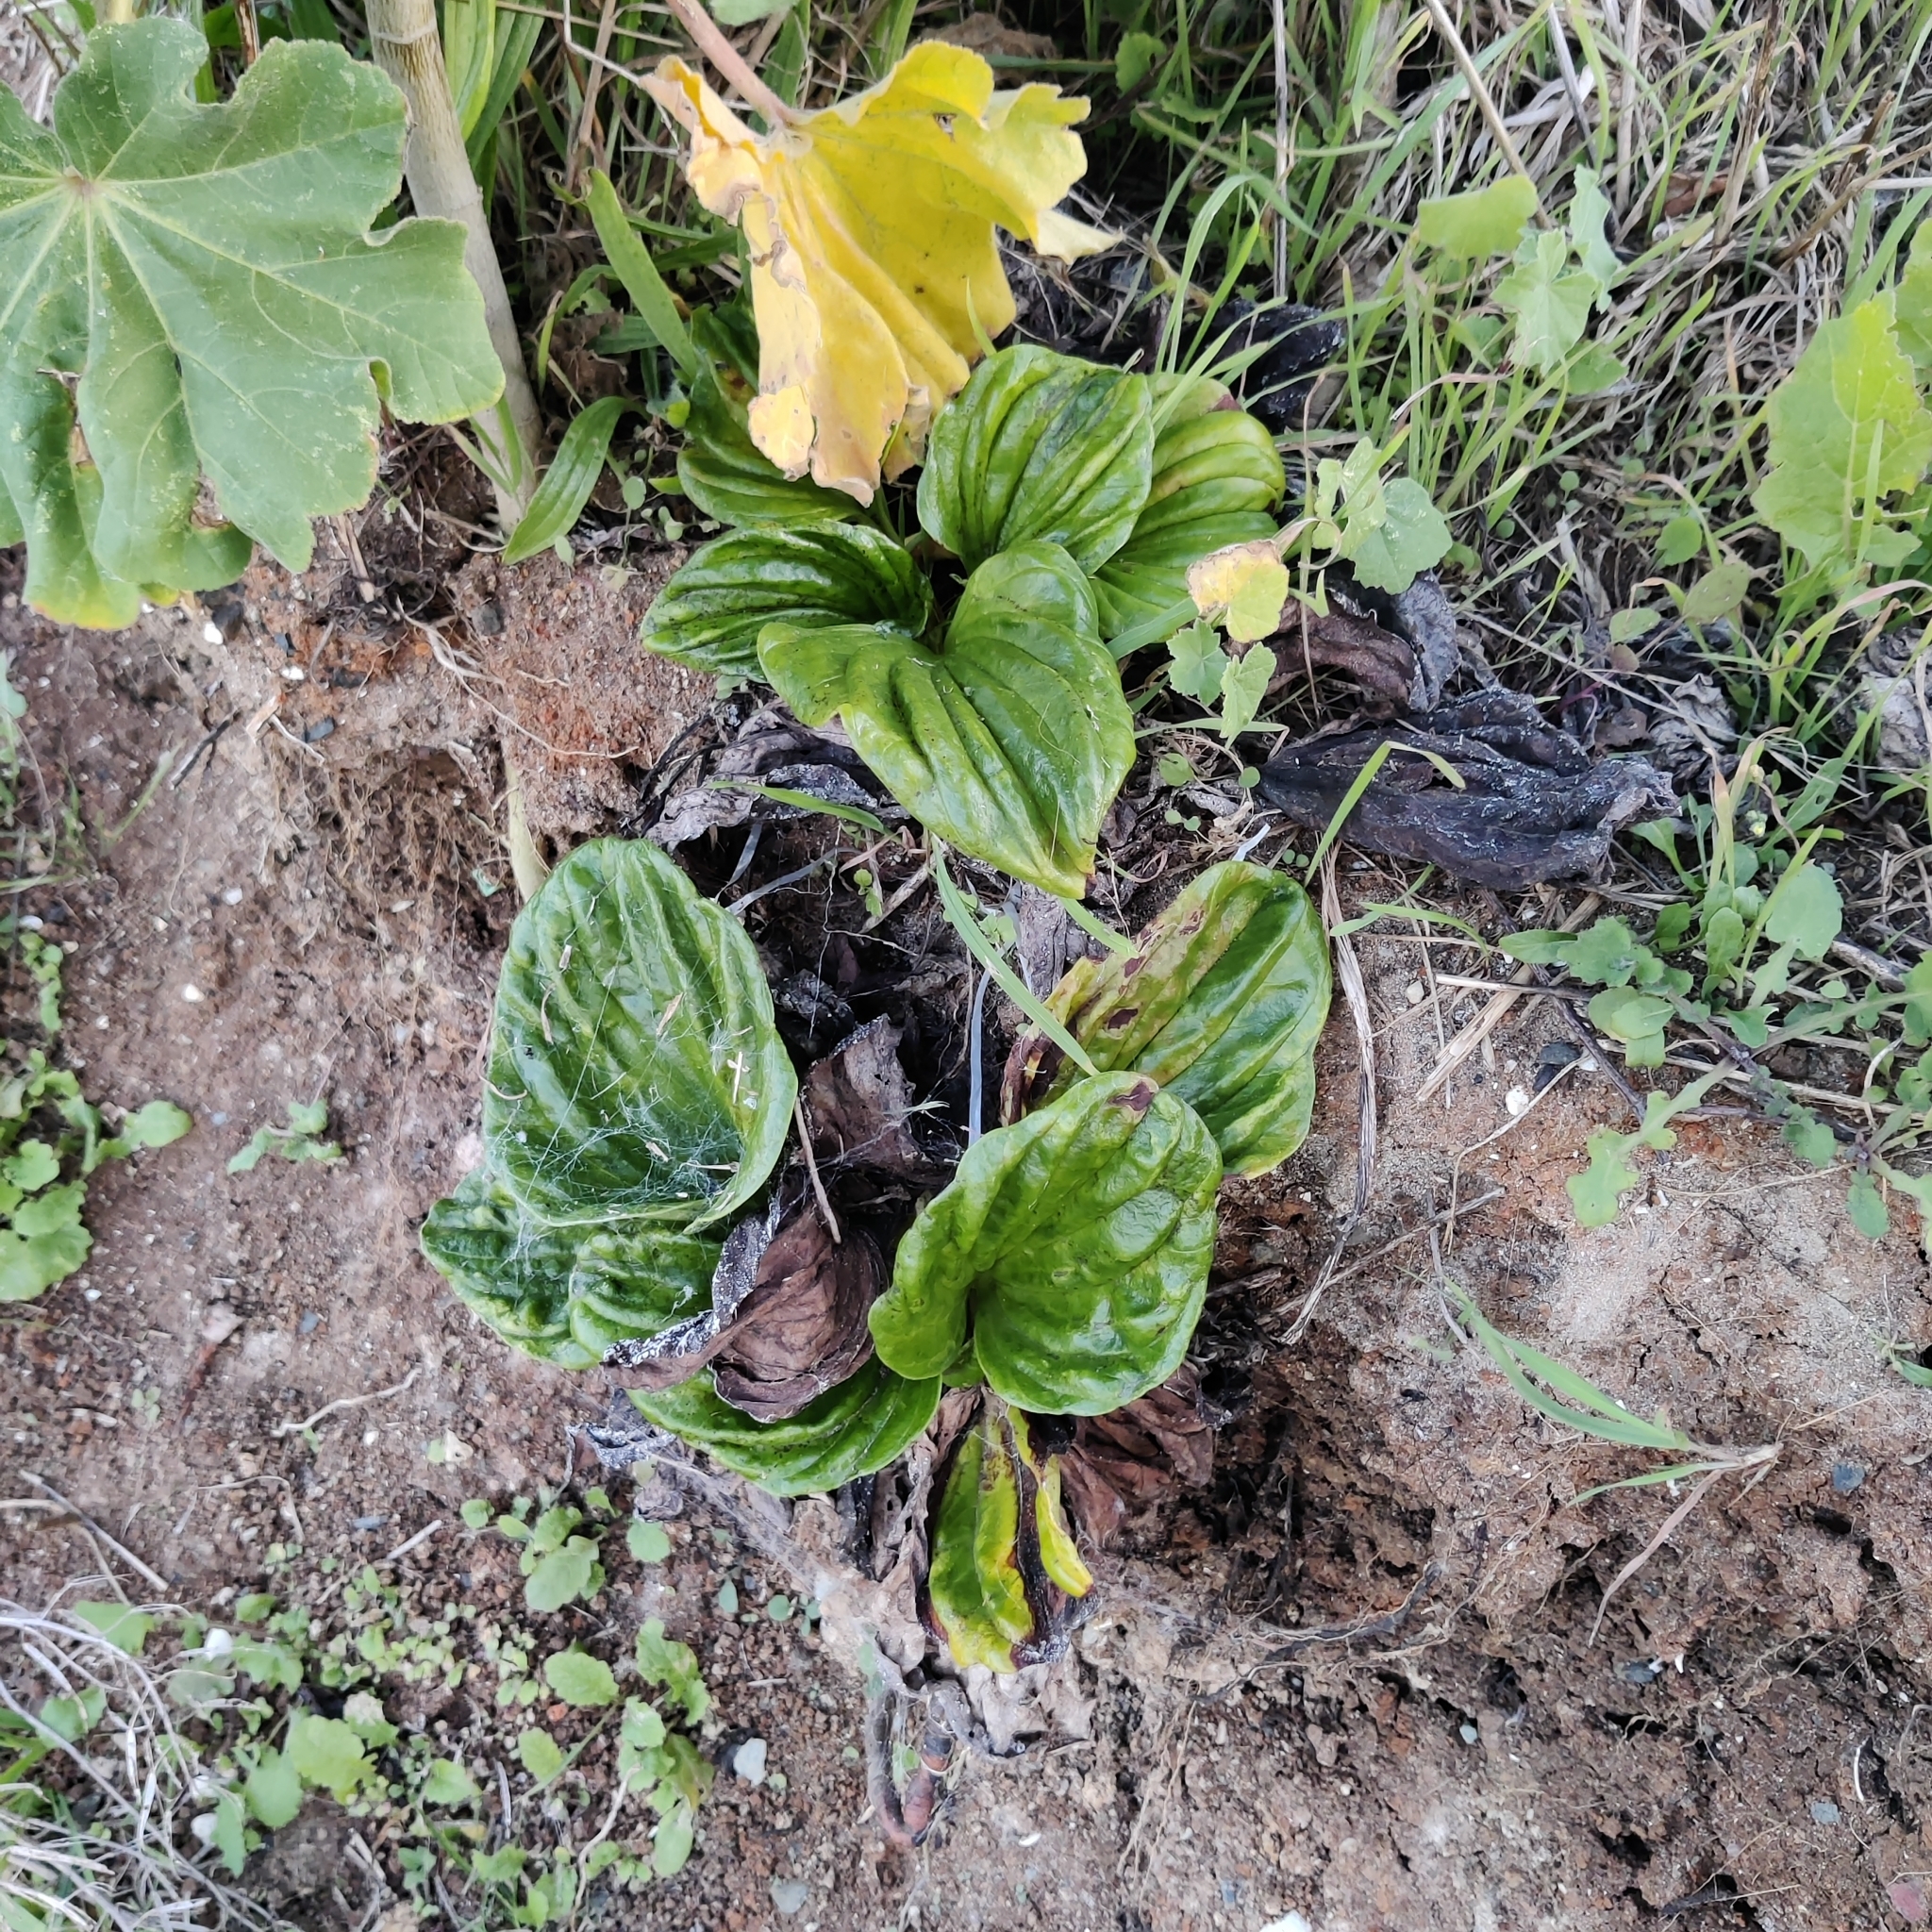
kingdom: Plantae
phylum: Tracheophyta
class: Magnoliopsida
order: Boraginales
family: Boraginaceae
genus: Myosotidium
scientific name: Myosotidium hortensia
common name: Giant forget-me-not
